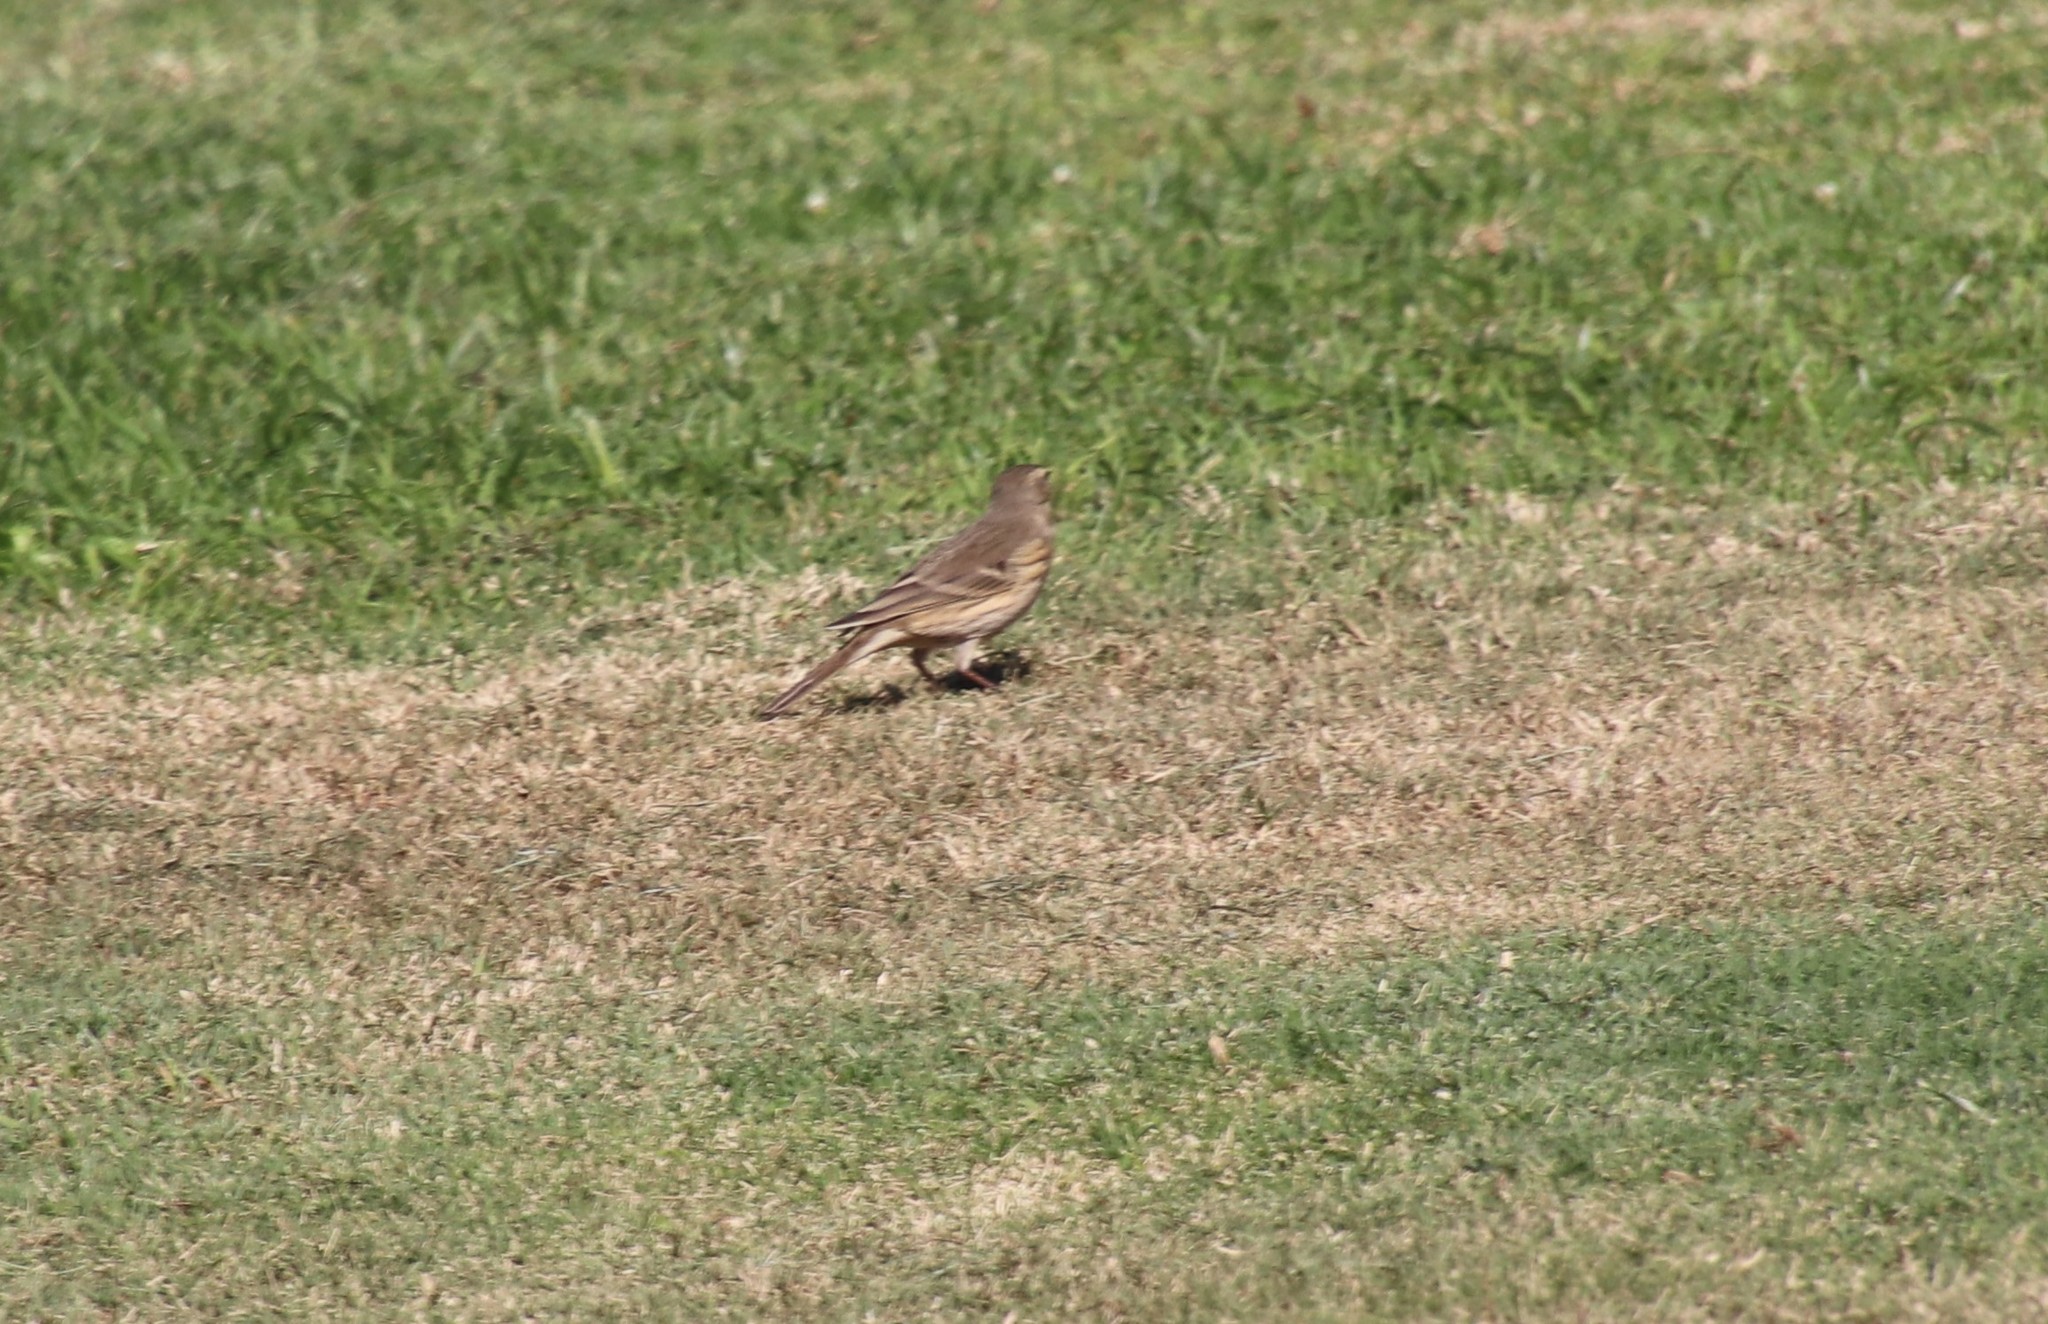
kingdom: Animalia
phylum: Chordata
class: Aves
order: Passeriformes
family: Motacillidae
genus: Anthus
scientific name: Anthus rubescens
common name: Buff-bellied pipit
